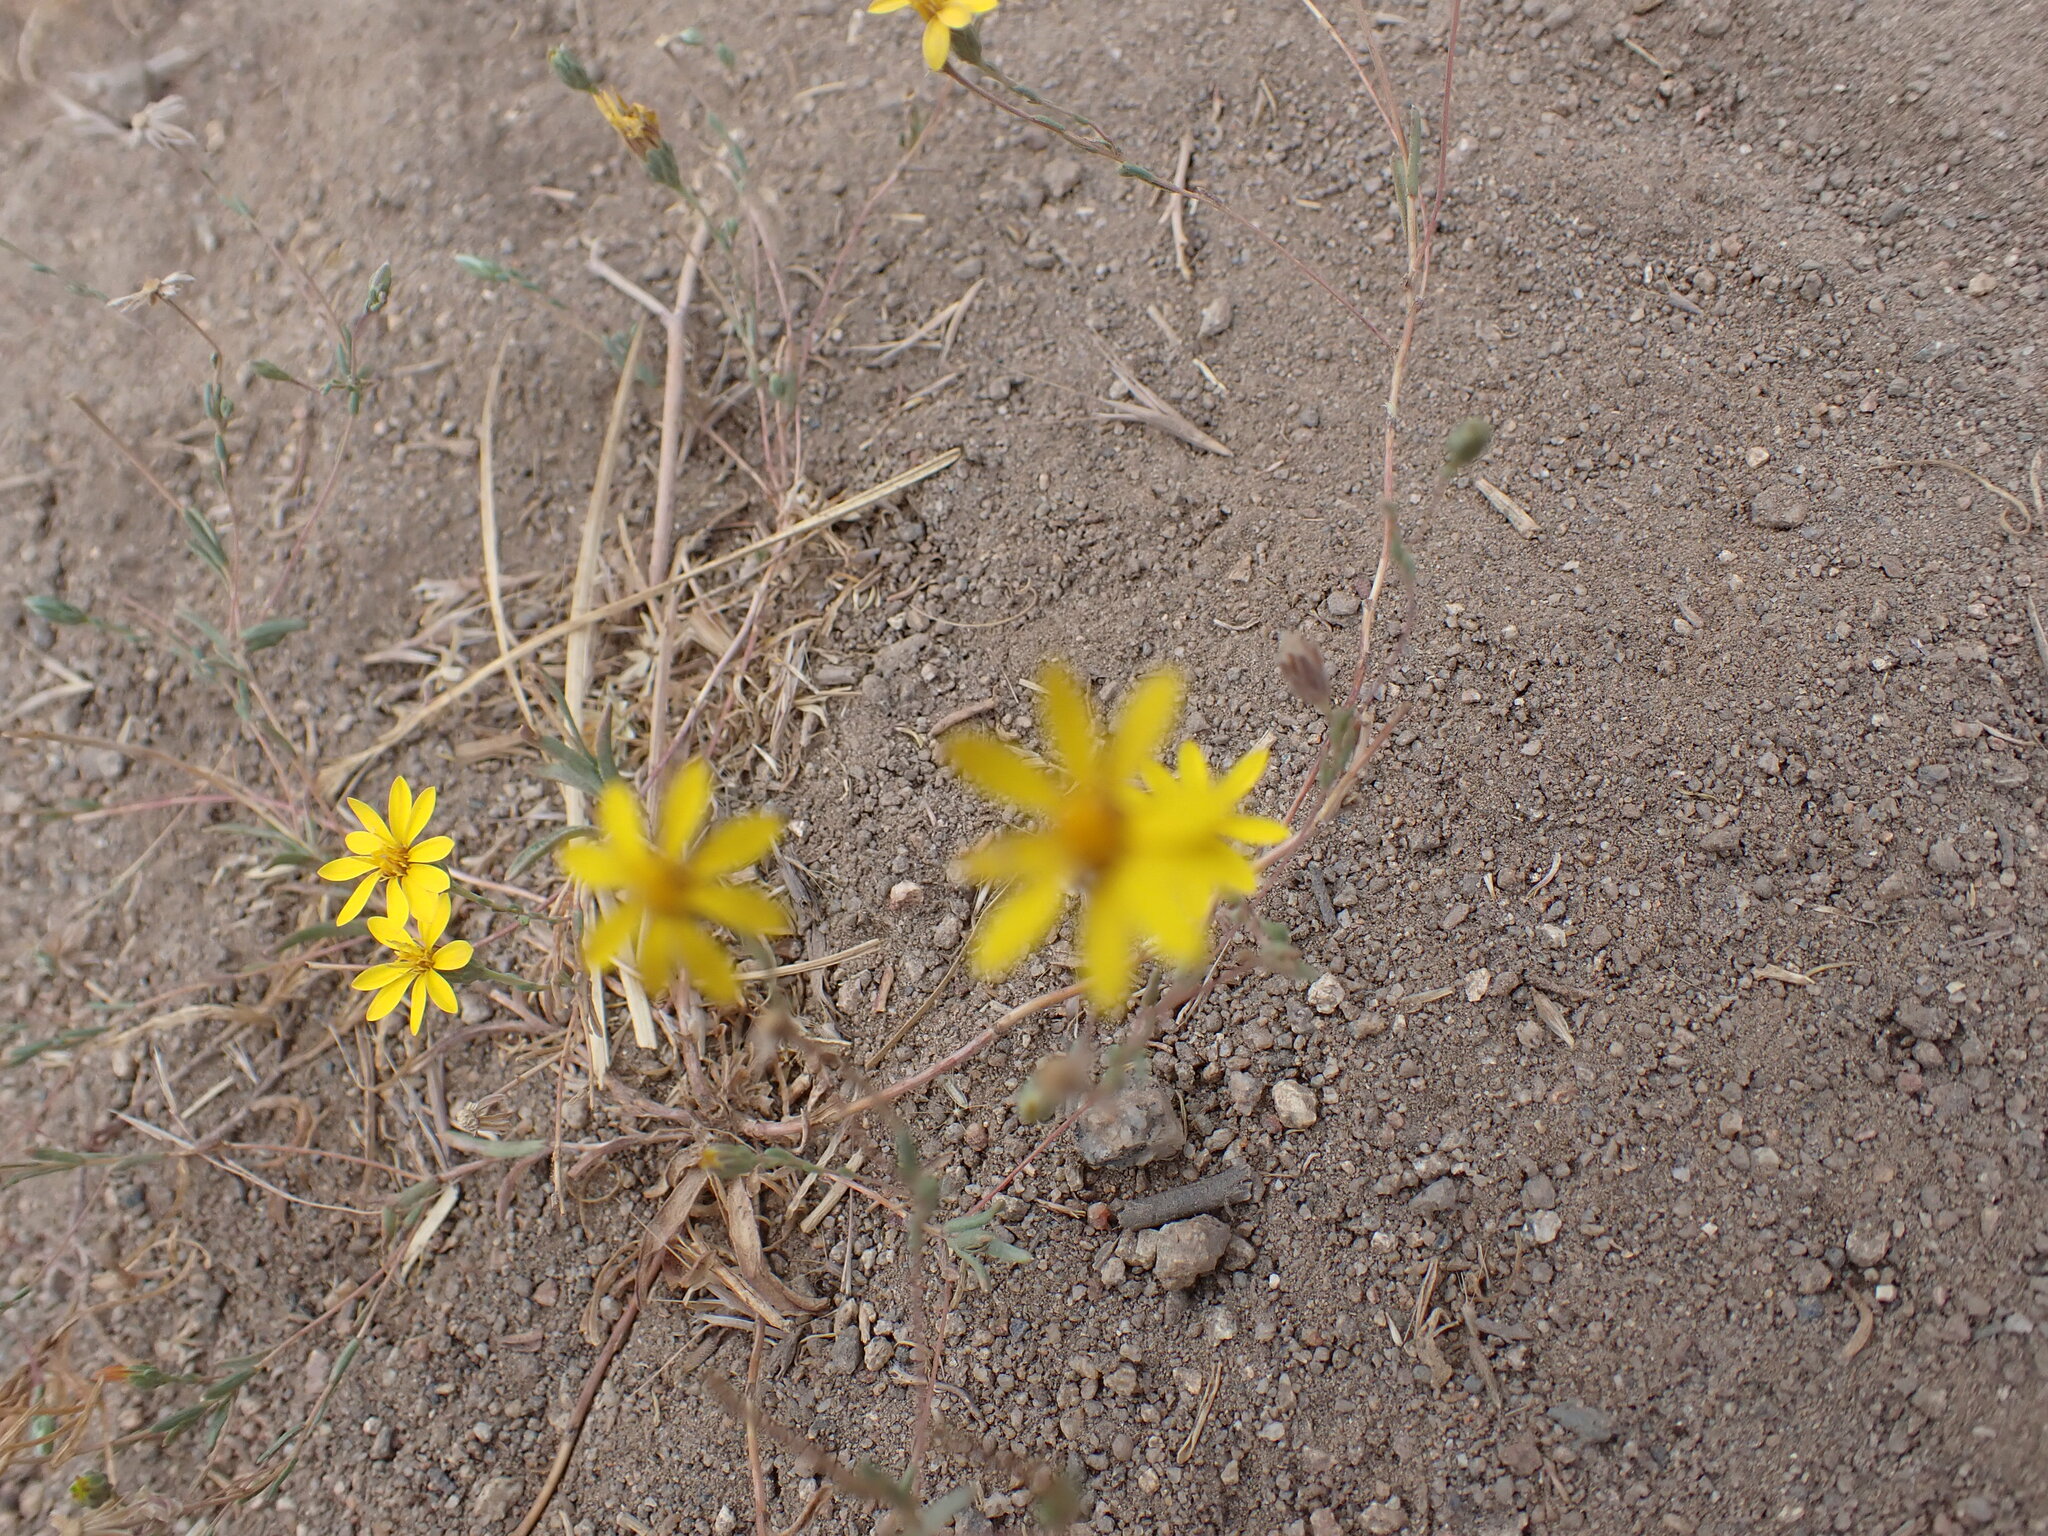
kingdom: Plantae
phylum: Tracheophyta
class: Magnoliopsida
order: Asterales
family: Asteraceae
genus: Pentachaeta
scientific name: Pentachaeta aurea
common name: Golden-ray pentachaeta
